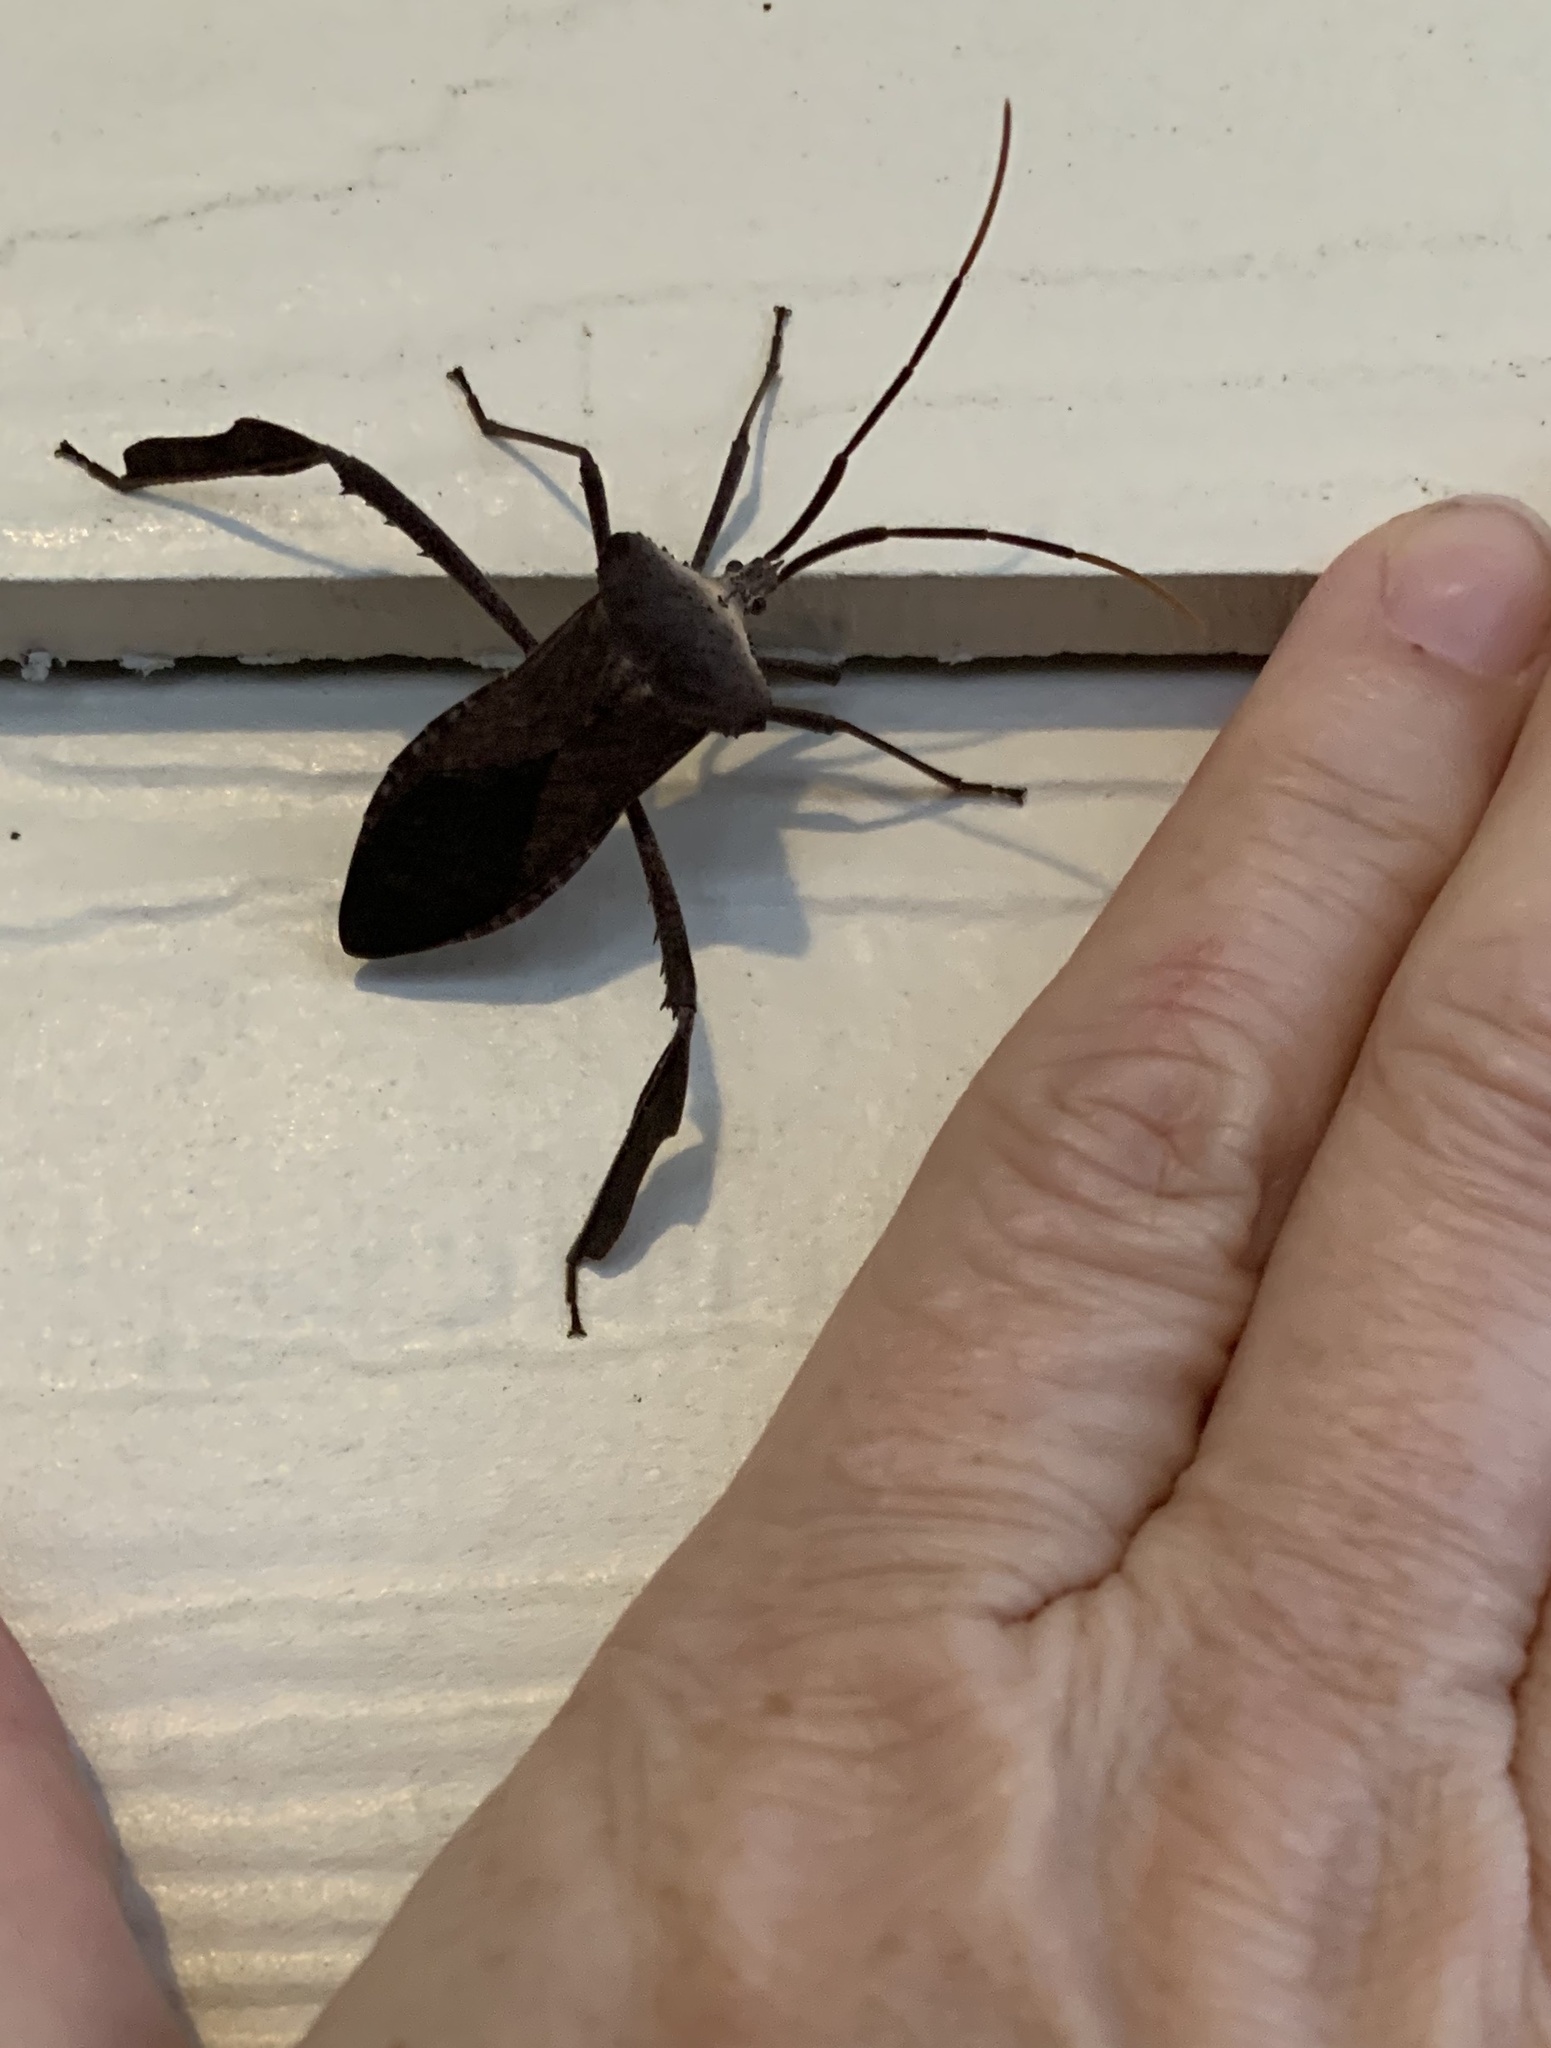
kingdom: Animalia
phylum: Arthropoda
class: Insecta
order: Hemiptera
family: Coreidae
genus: Acanthocephala
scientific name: Acanthocephala declivis
